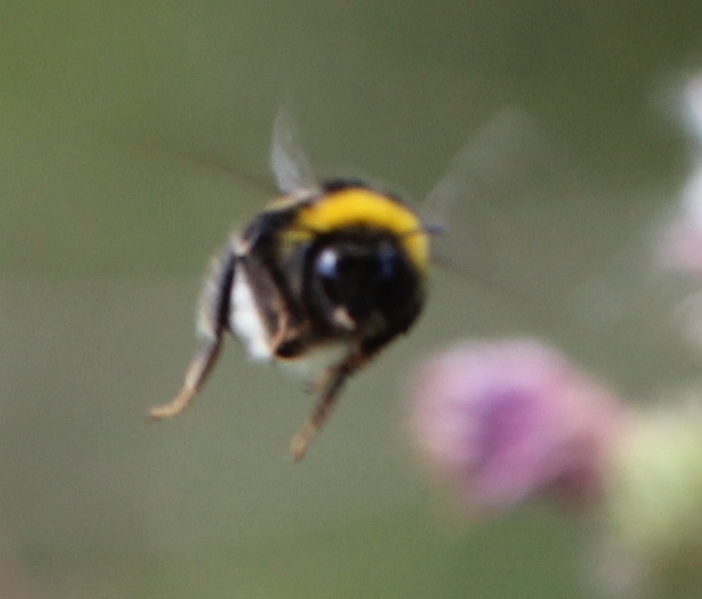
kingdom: Animalia
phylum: Arthropoda
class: Insecta
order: Hymenoptera
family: Apidae
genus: Bombus
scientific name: Bombus
